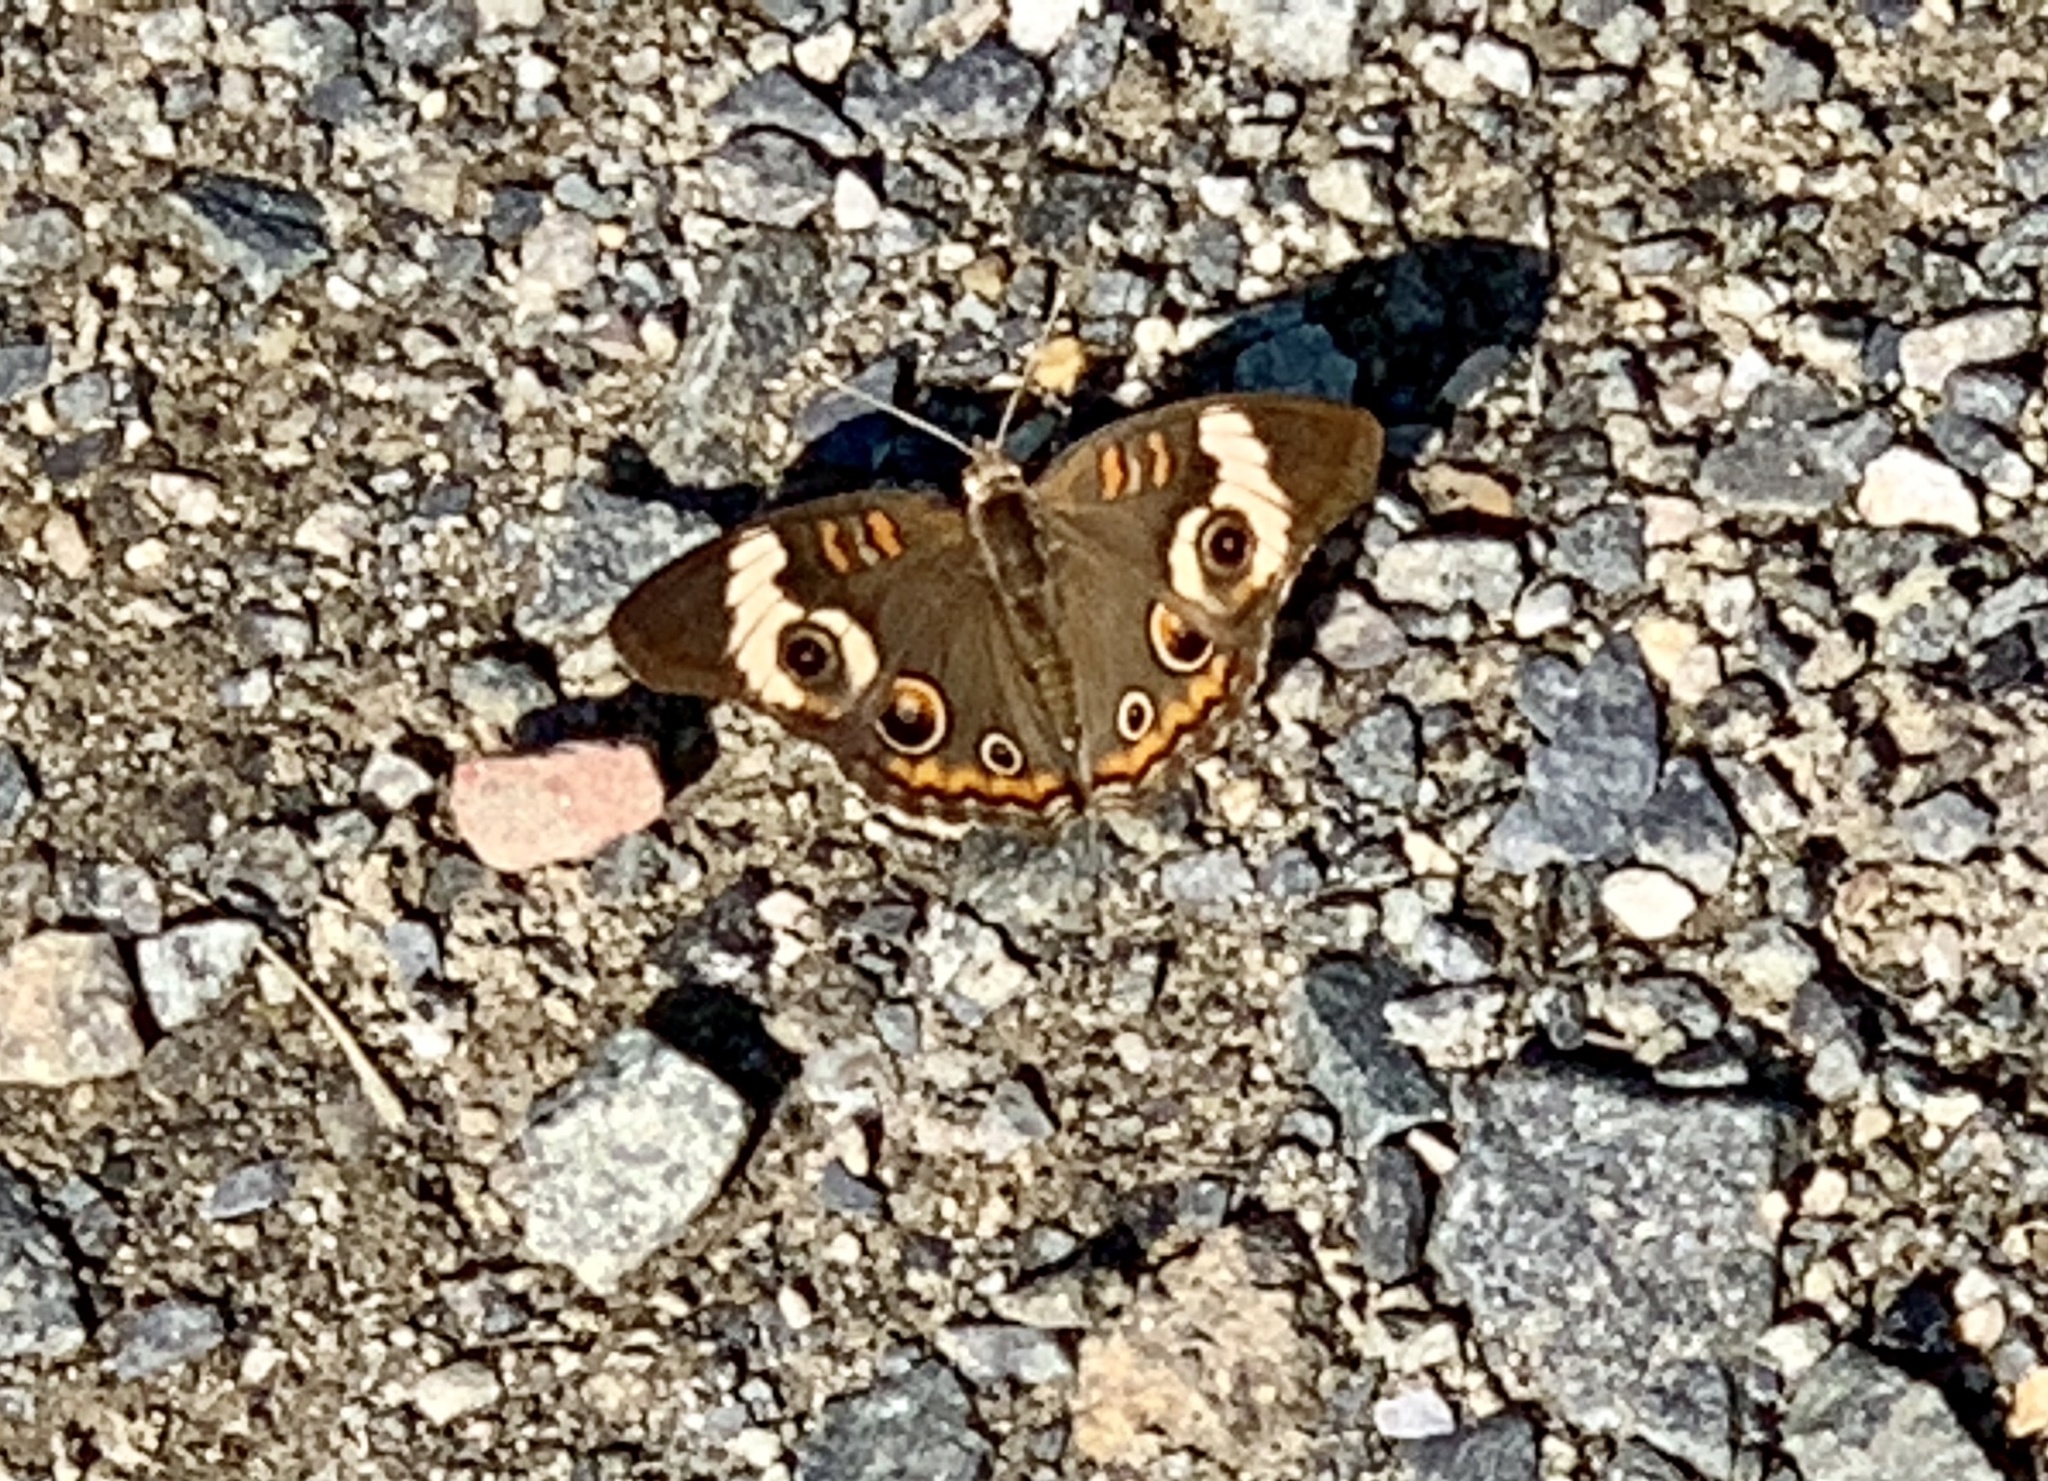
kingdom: Animalia
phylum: Arthropoda
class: Insecta
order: Lepidoptera
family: Nymphalidae
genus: Junonia
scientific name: Junonia coenia
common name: Common buckeye
